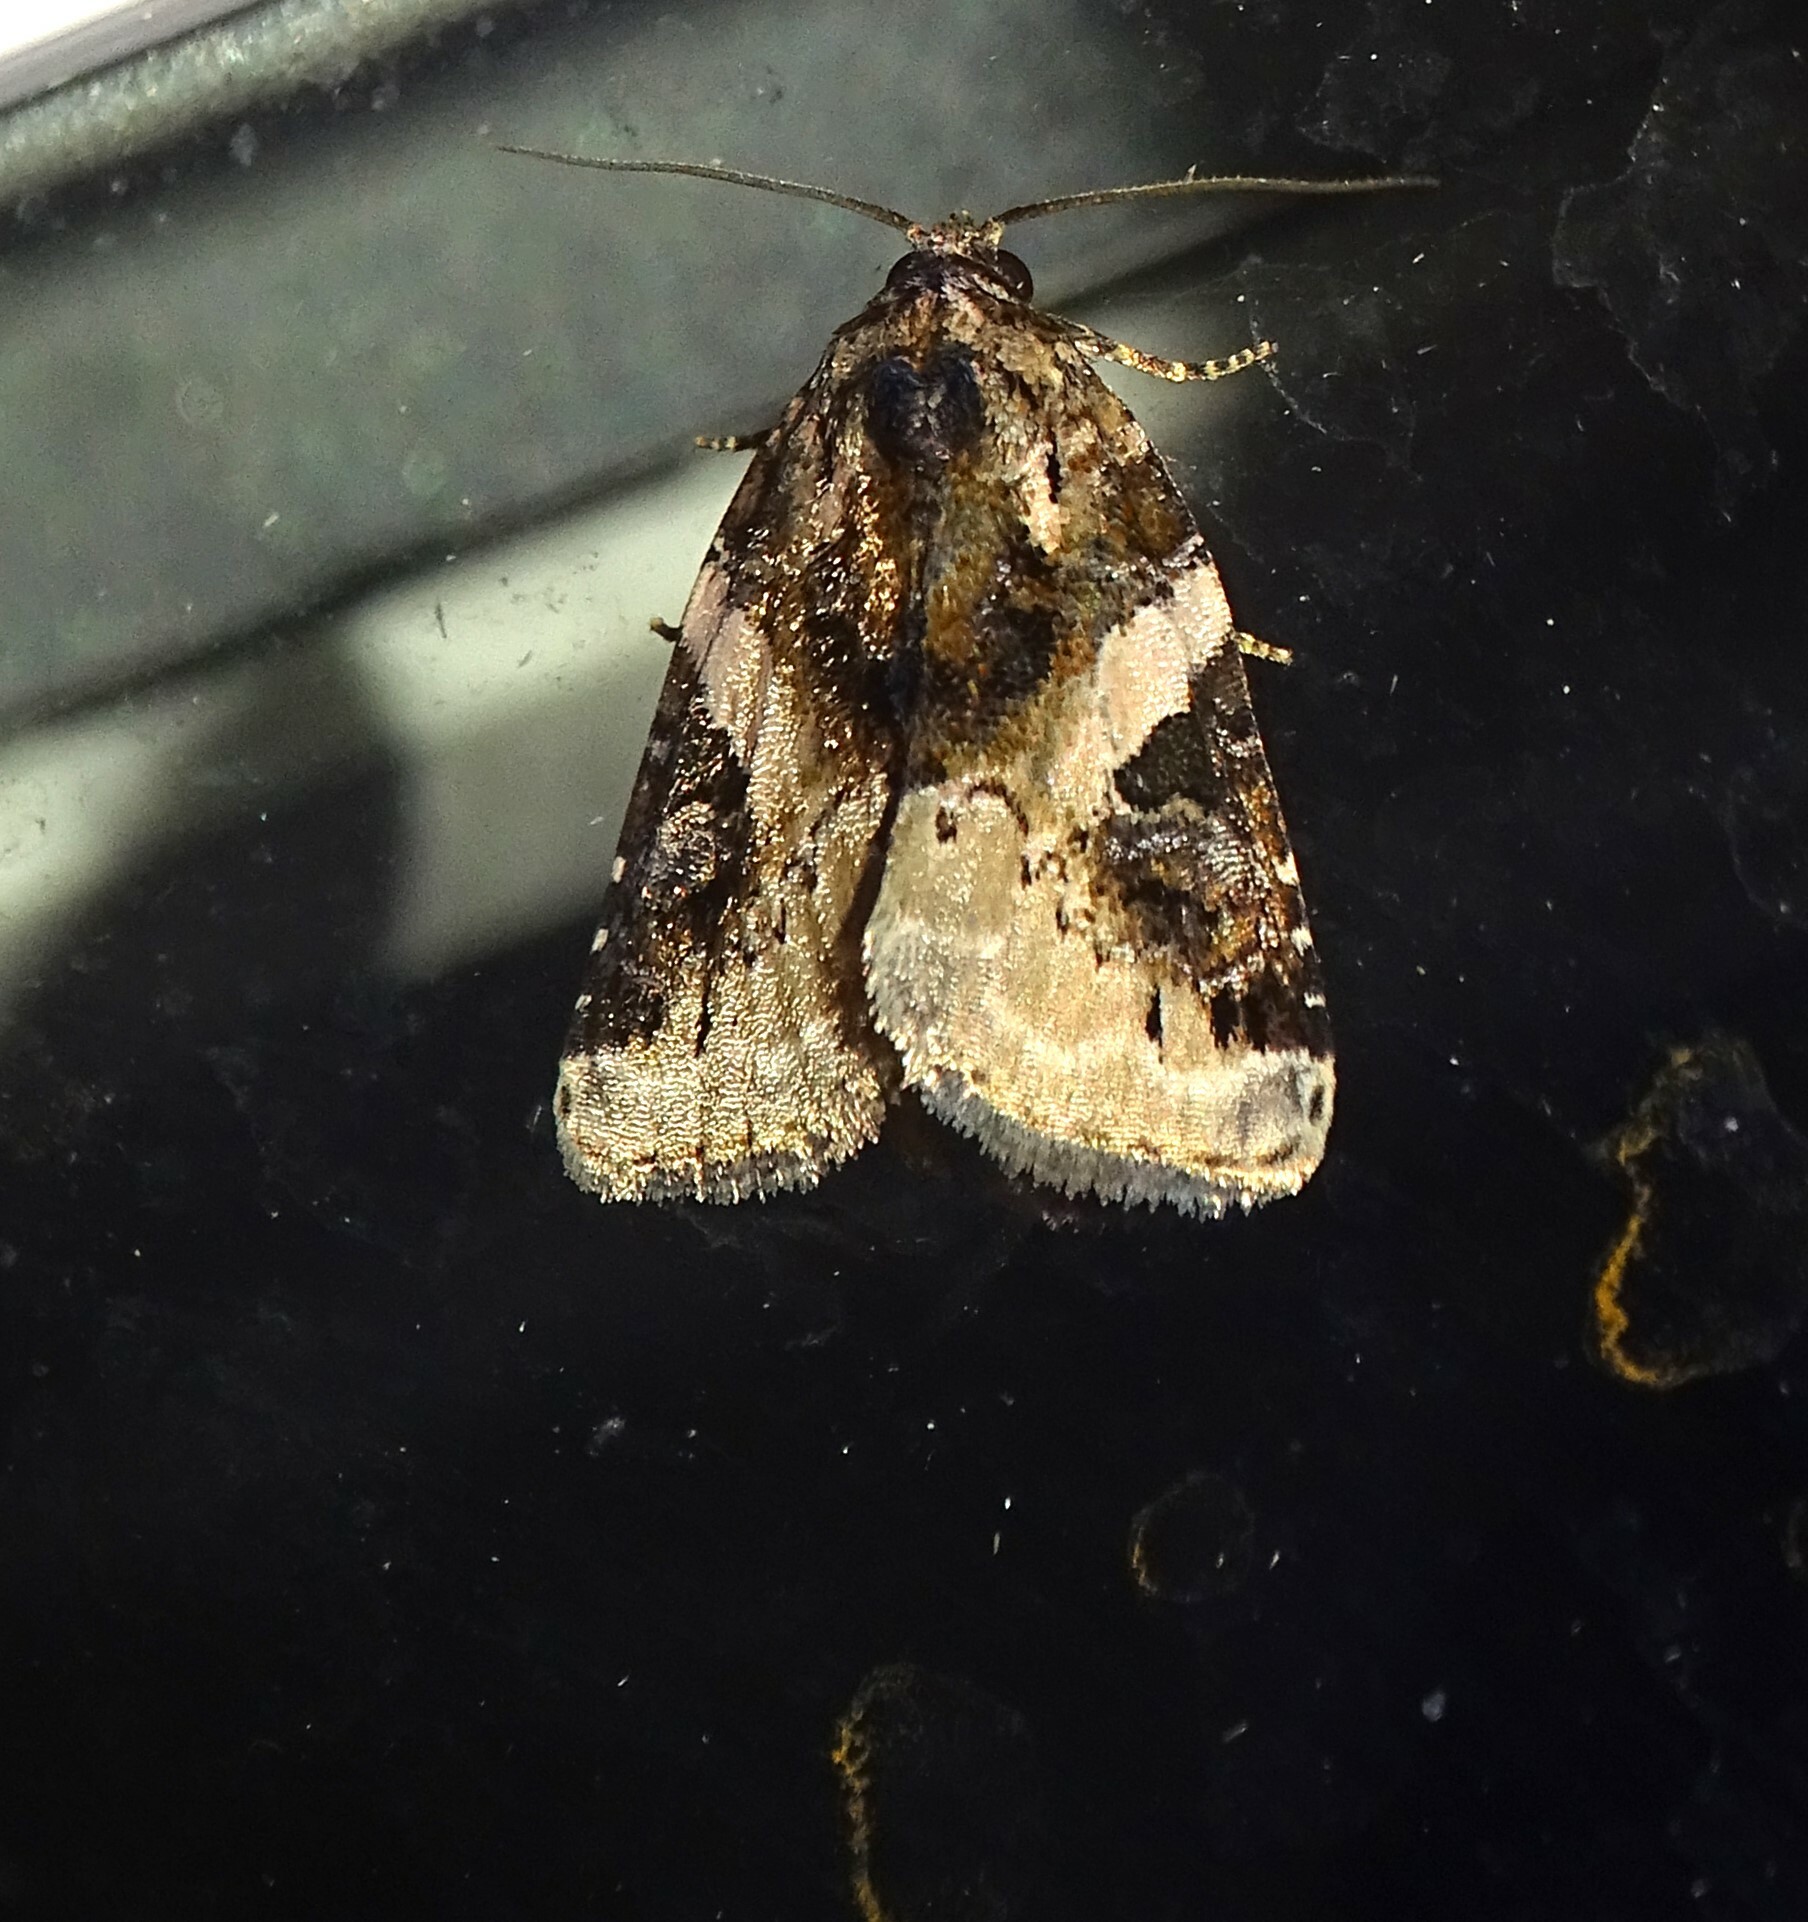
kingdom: Animalia
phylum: Arthropoda
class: Insecta
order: Lepidoptera
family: Noctuidae
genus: Pseudeustrotia
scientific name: Pseudeustrotia carneola
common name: Pink-barred lithacodia moth
